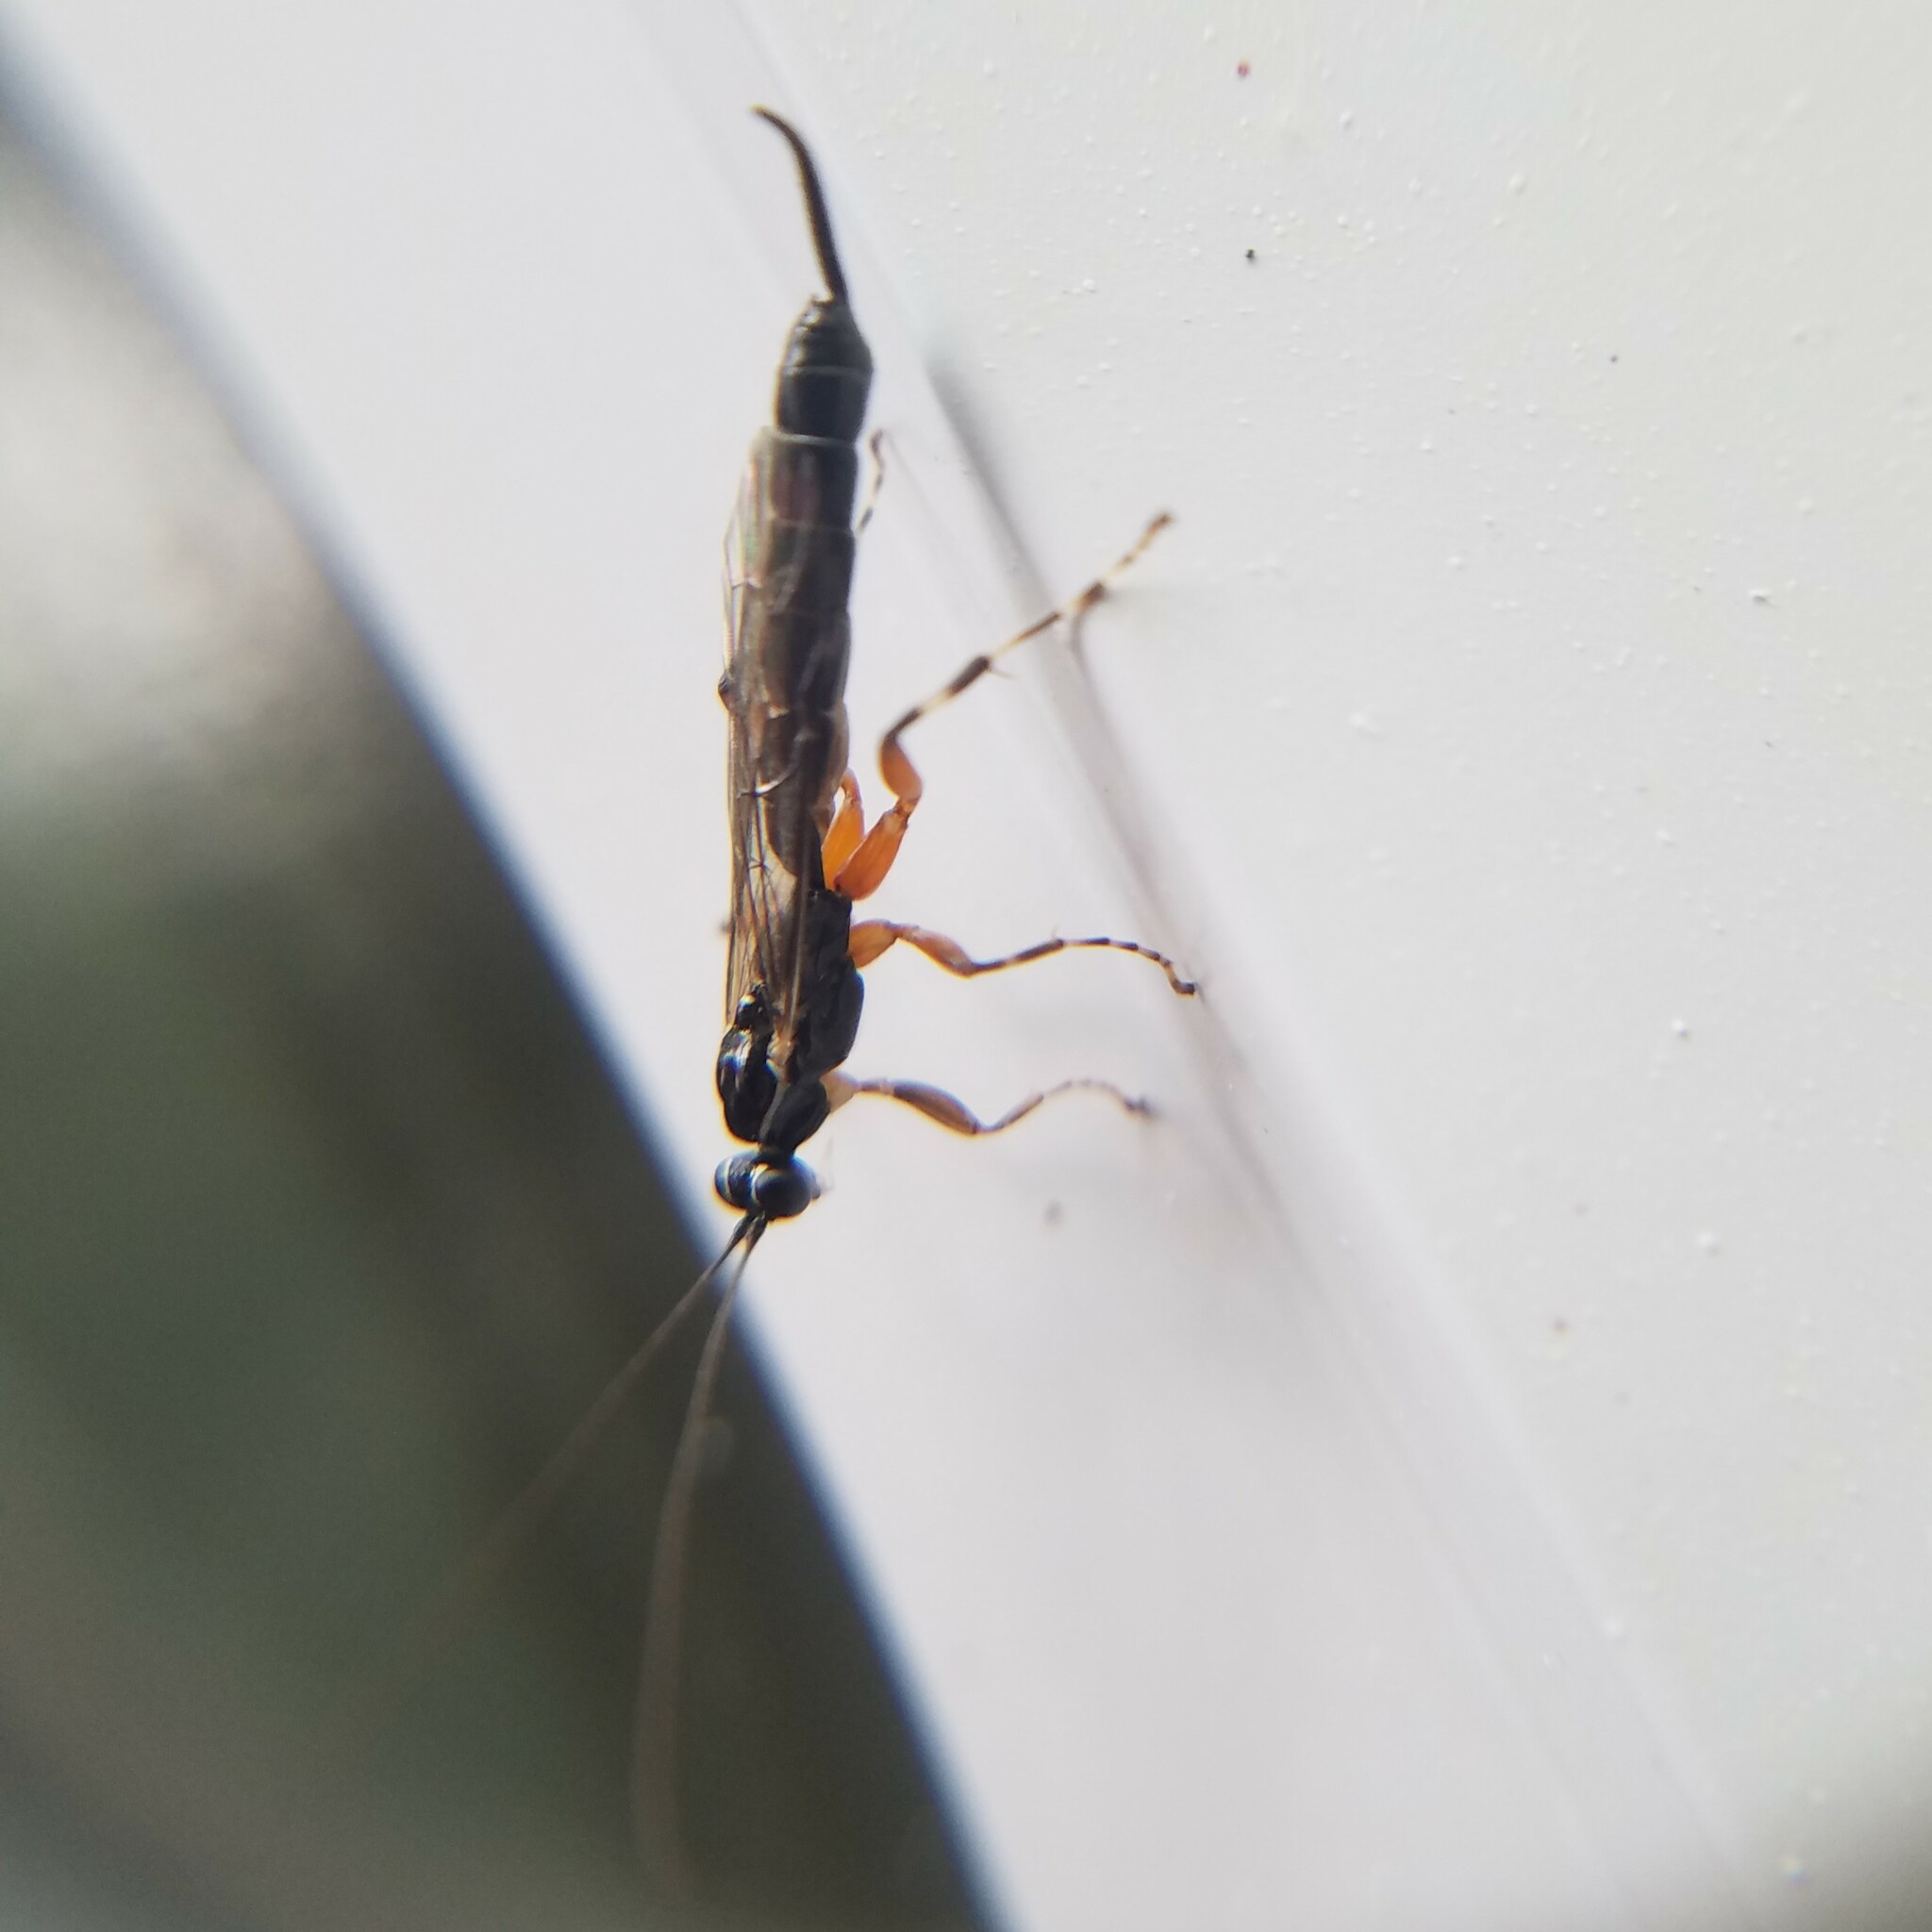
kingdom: Animalia
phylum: Arthropoda
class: Insecta
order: Hymenoptera
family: Ichneumonidae
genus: Clistopyga
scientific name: Clistopyga recurva
